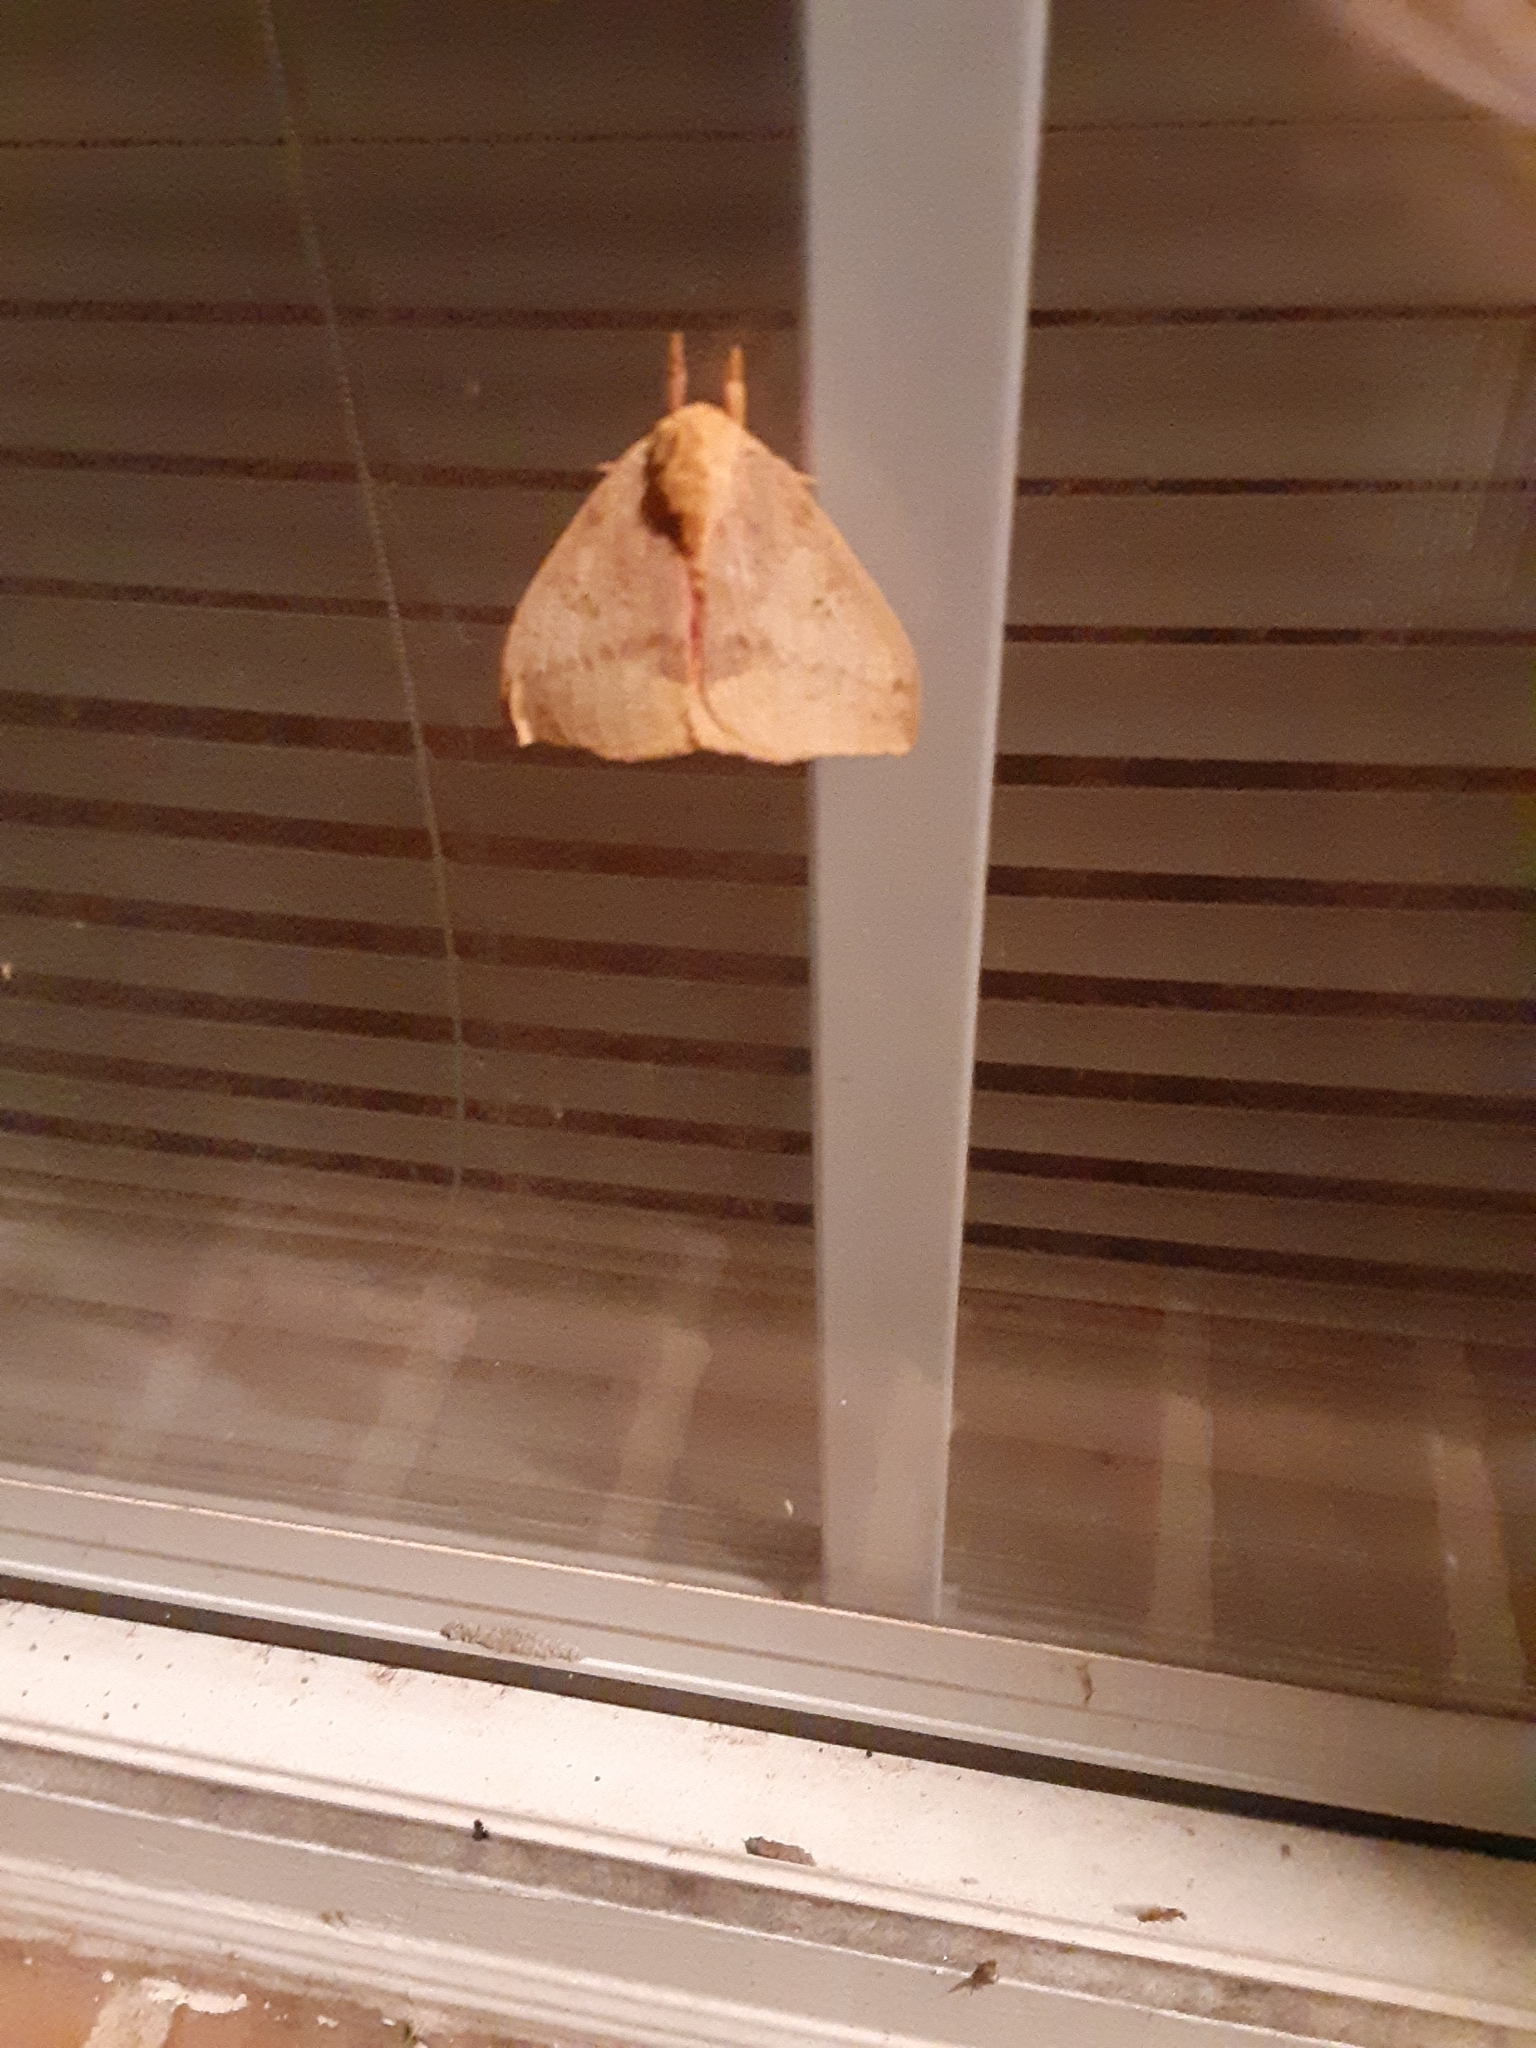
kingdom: Animalia
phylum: Arthropoda
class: Insecta
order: Lepidoptera
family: Saturniidae
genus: Automeris
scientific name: Automeris io
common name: Io moth
